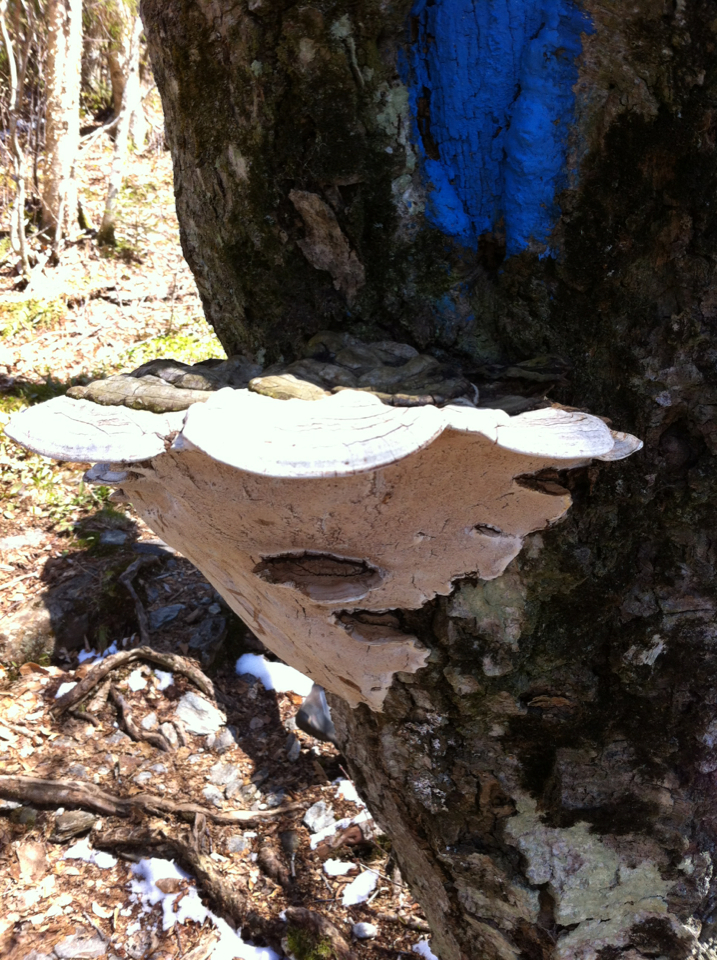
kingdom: Fungi
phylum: Basidiomycota
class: Agaricomycetes
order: Polyporales
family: Polyporaceae
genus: Ganoderma
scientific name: Ganoderma applanatum
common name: Artist's bracket
